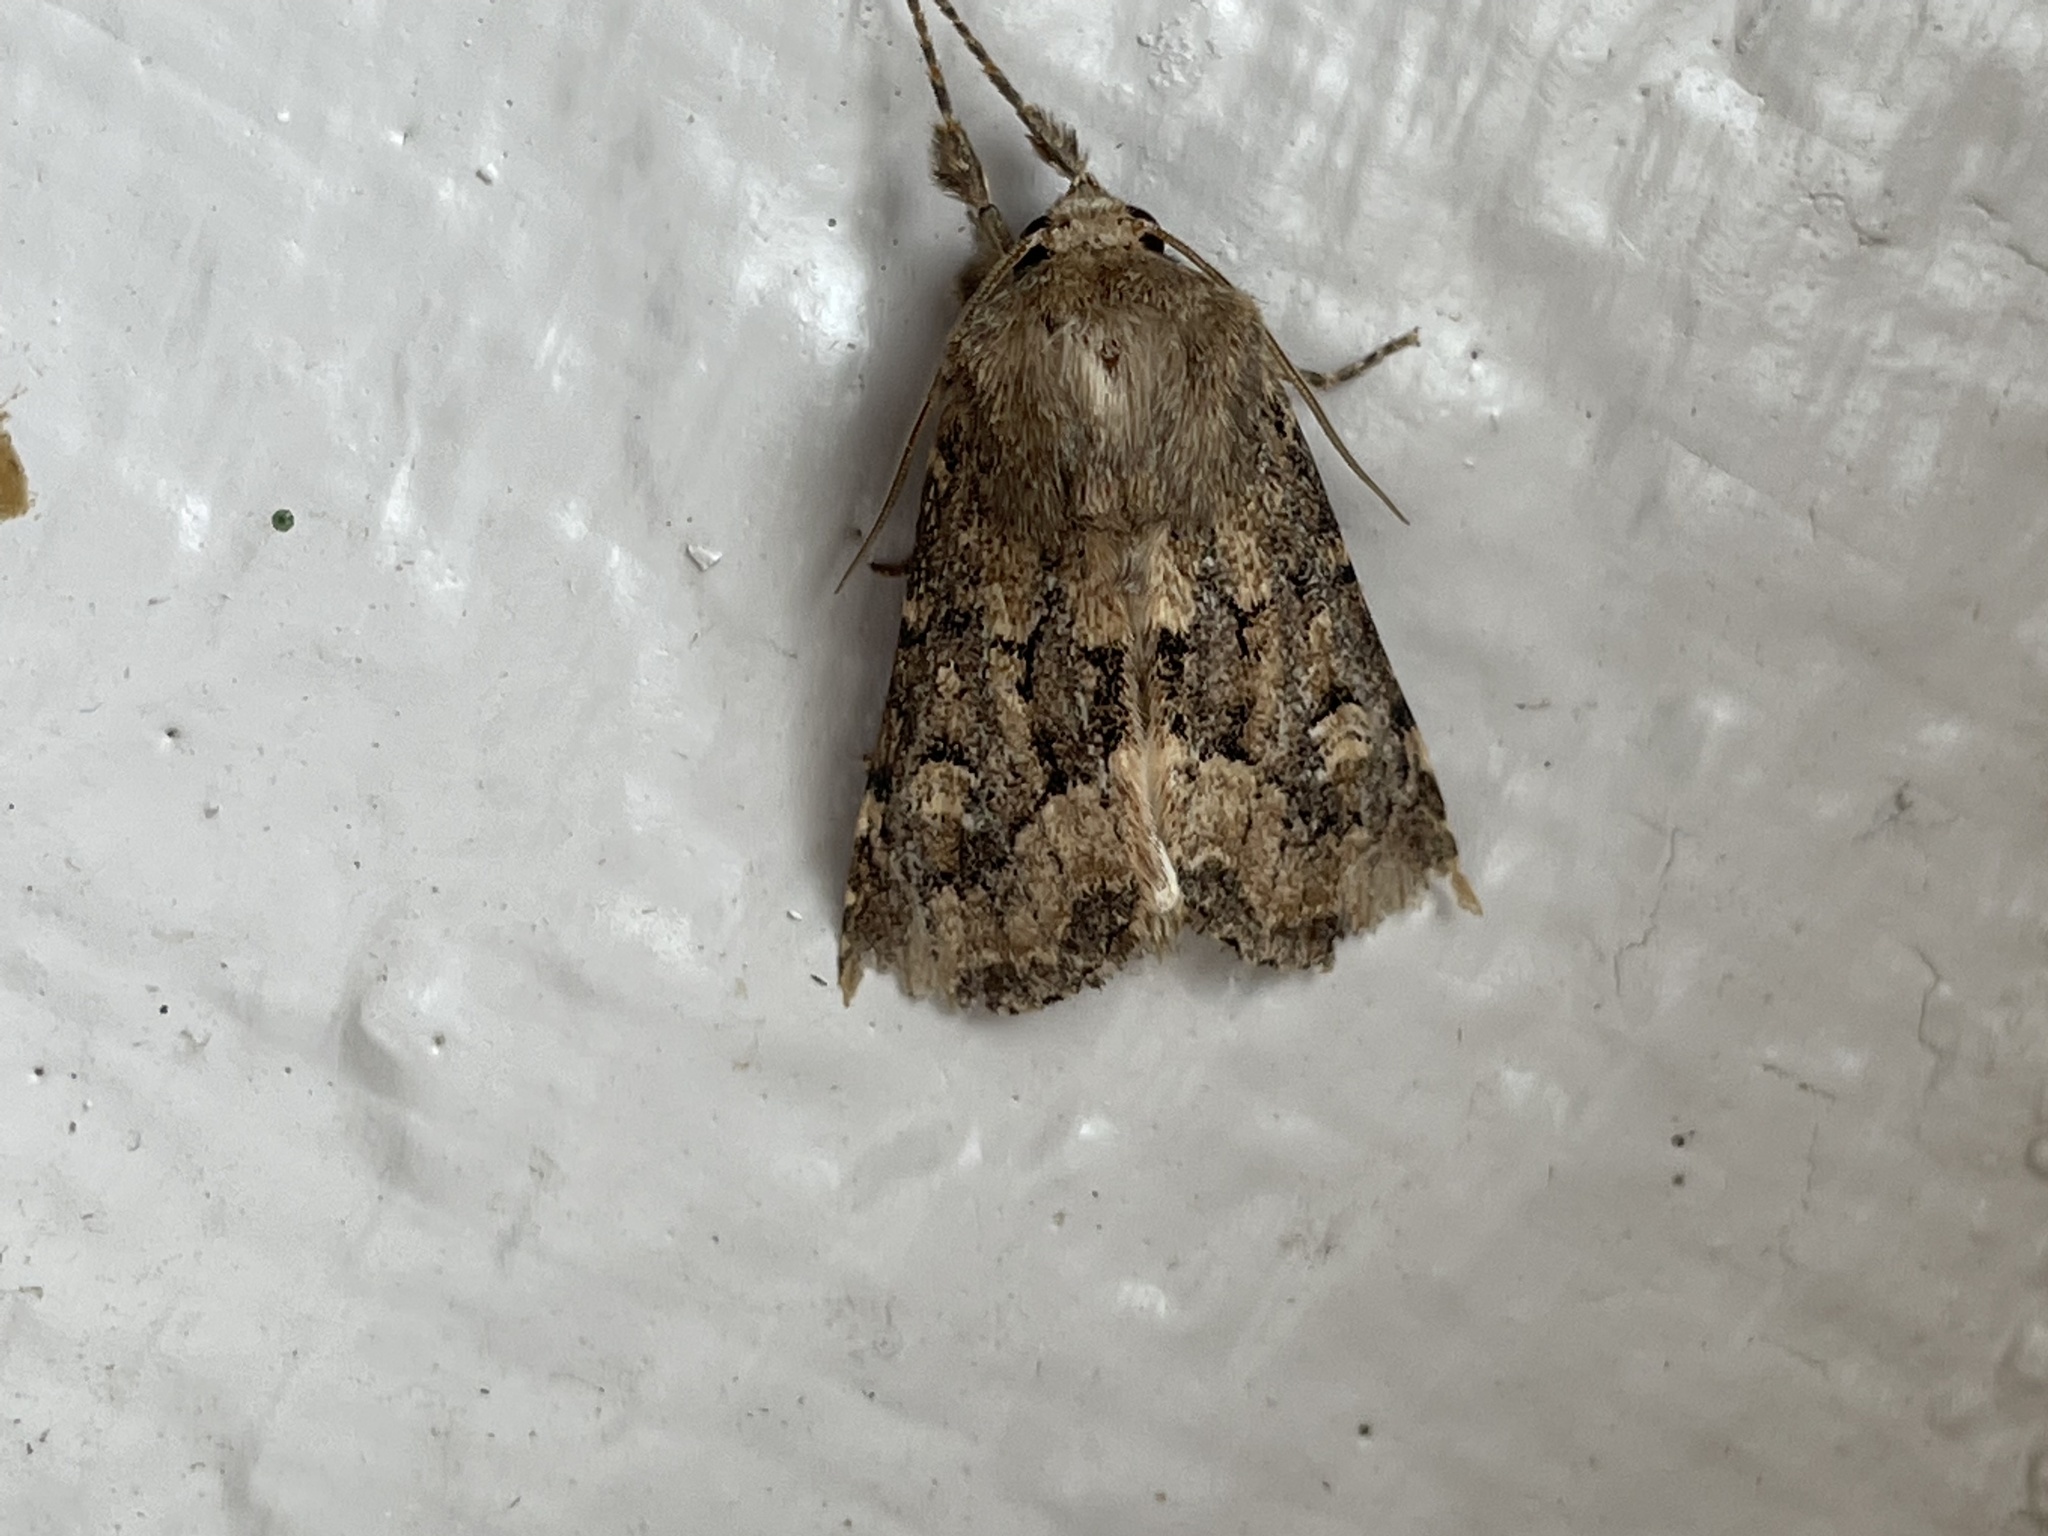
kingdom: Animalia
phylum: Arthropoda
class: Insecta
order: Lepidoptera
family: Noctuidae
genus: Luperina
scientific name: Luperina testacea
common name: Flounced rustic
